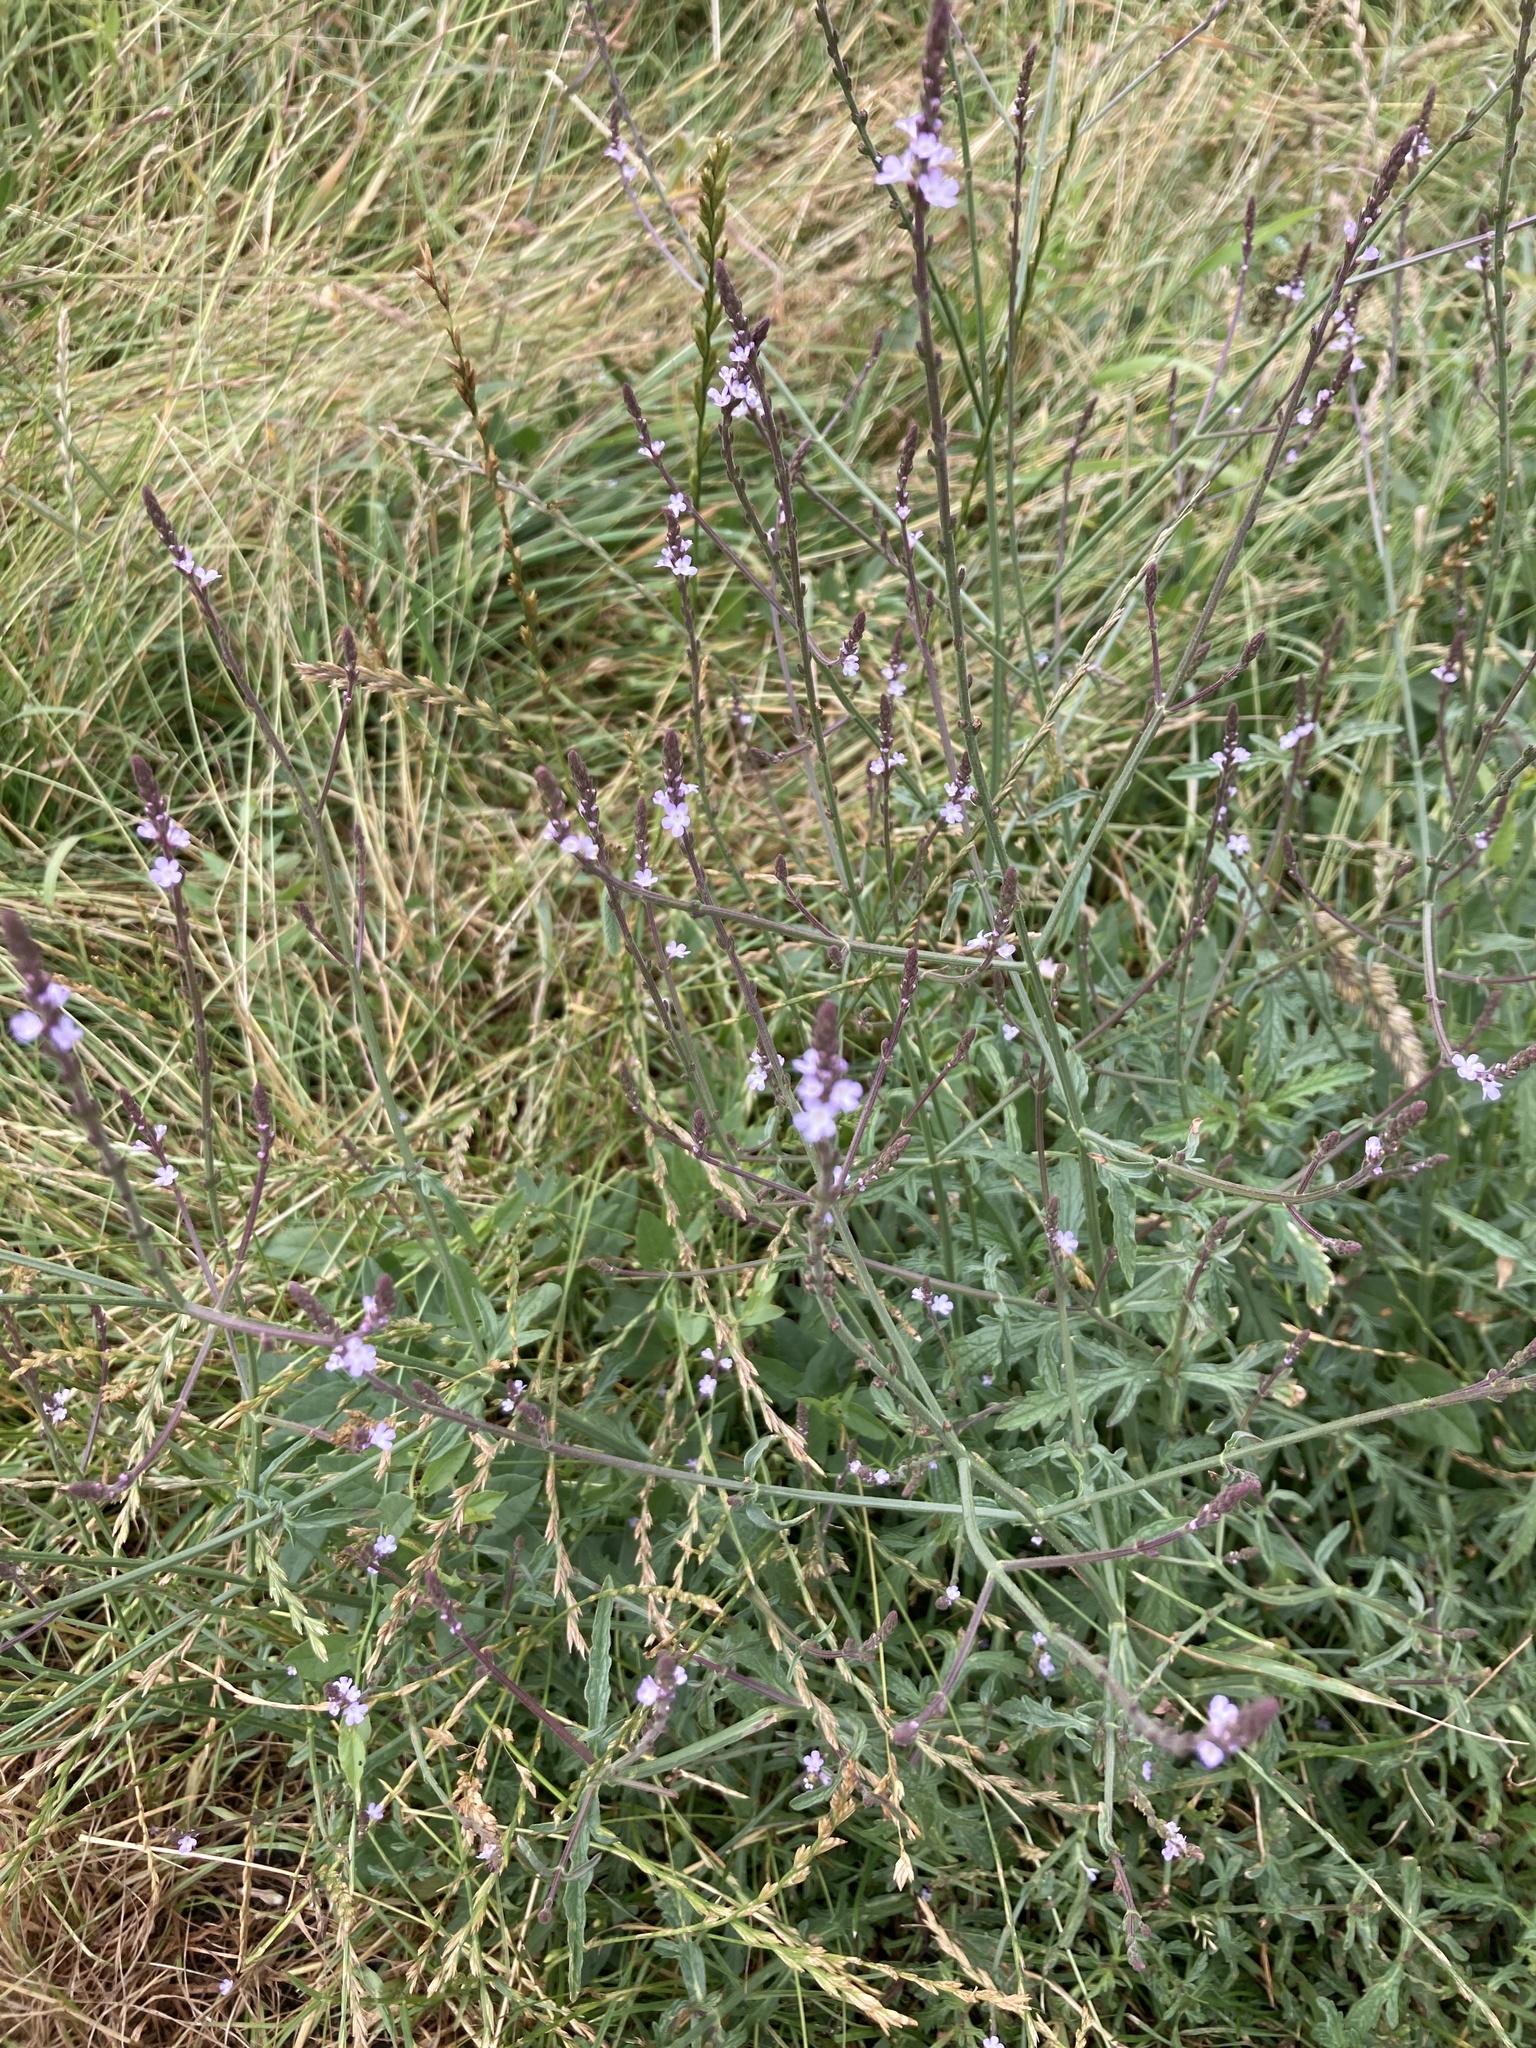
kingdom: Plantae
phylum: Tracheophyta
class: Magnoliopsida
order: Lamiales
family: Verbenaceae
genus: Verbena
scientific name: Verbena officinalis
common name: Vervain
